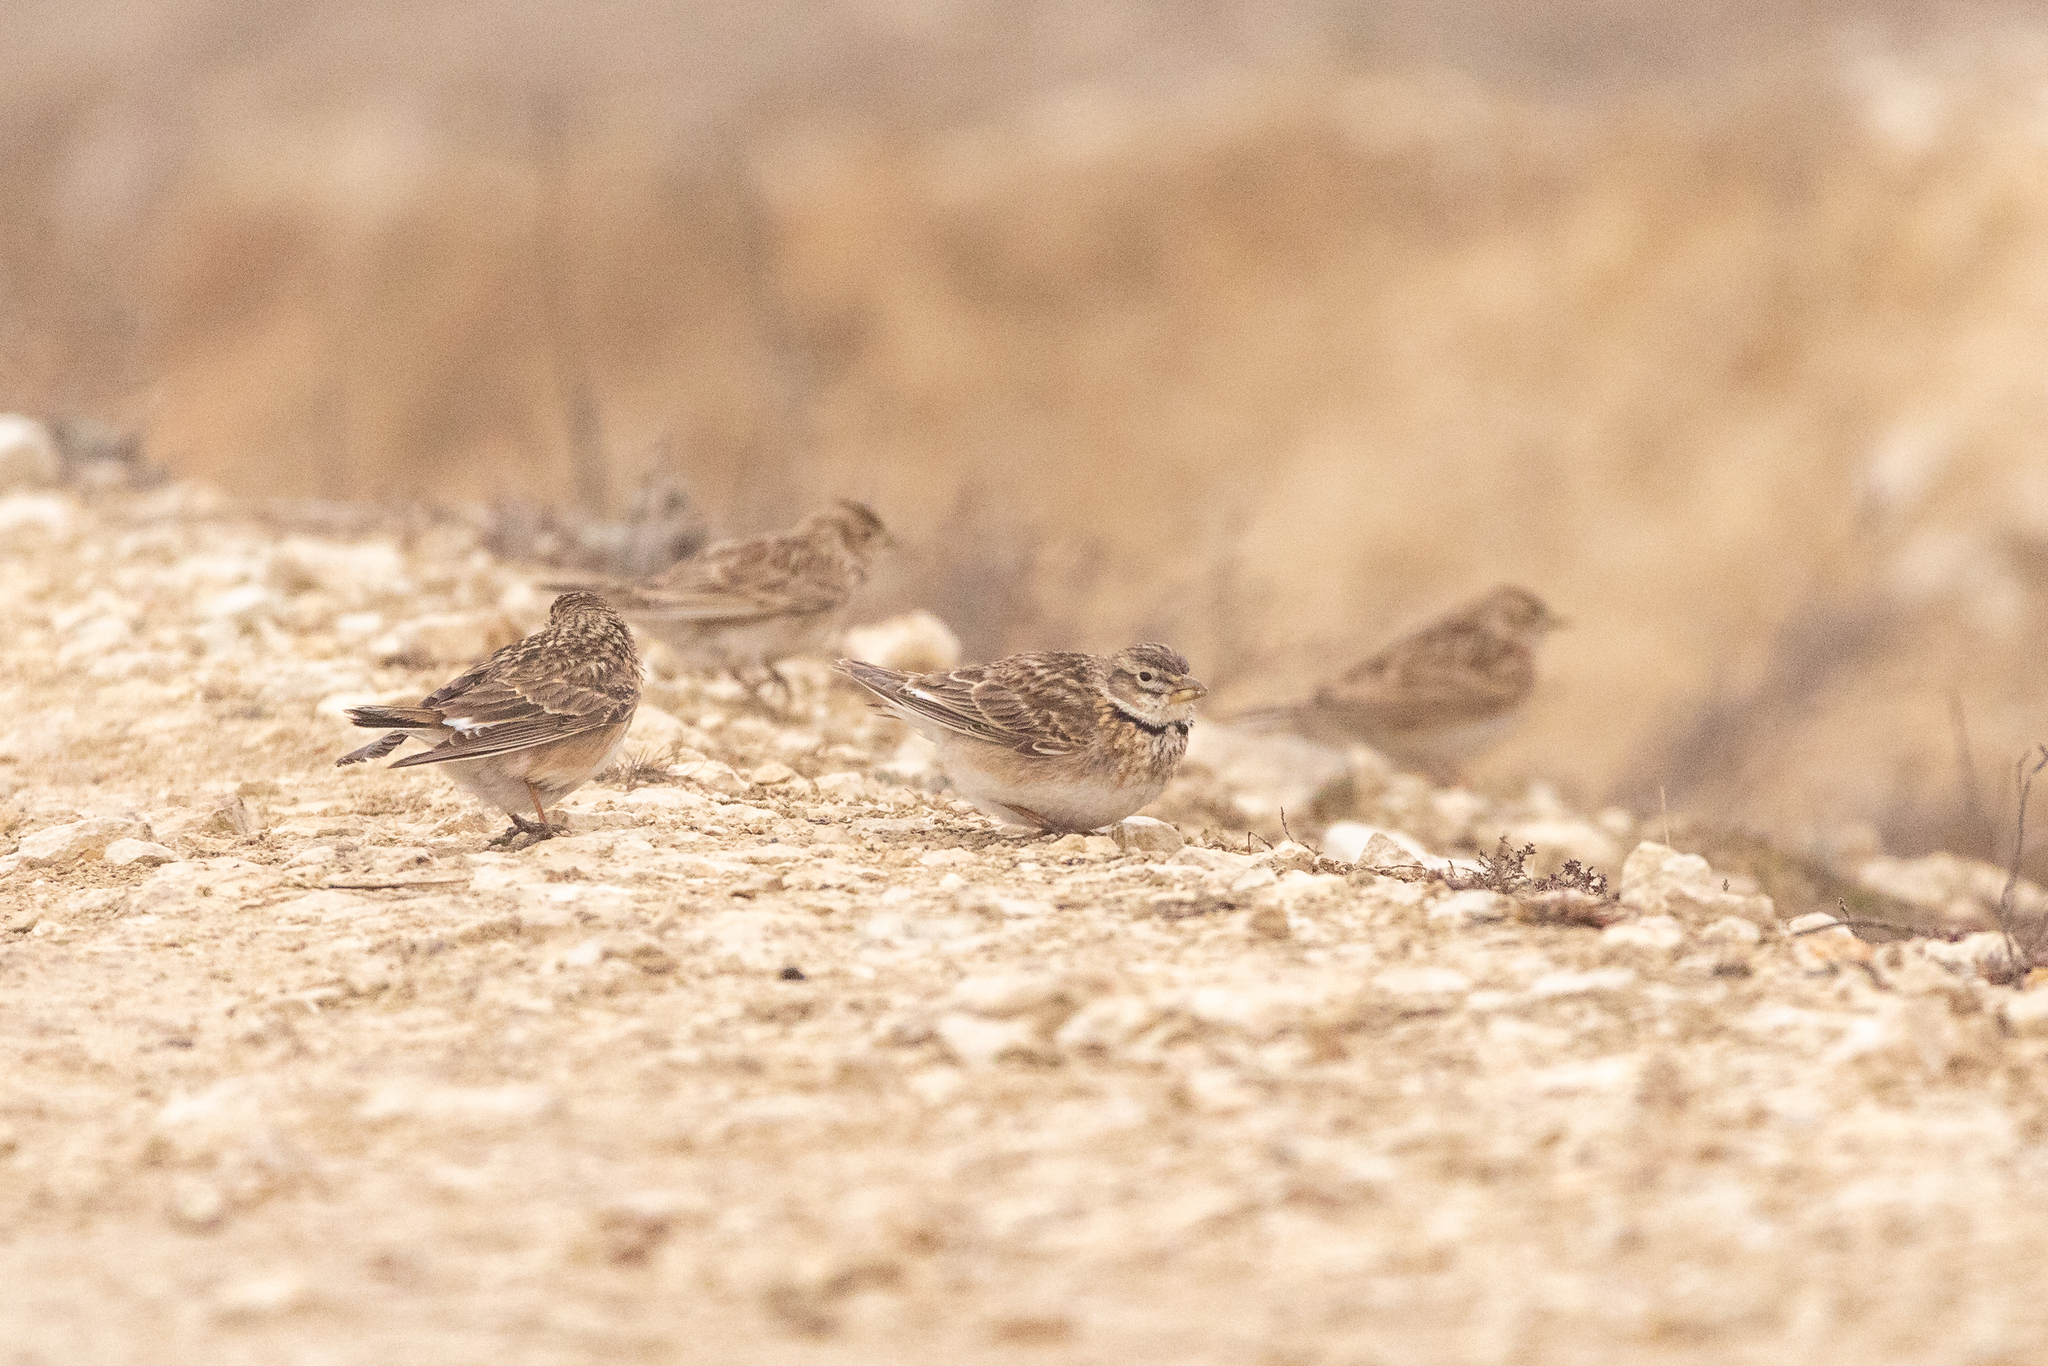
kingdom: Animalia
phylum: Chordata
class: Aves
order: Passeriformes
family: Alaudidae
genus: Melanocorypha
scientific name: Melanocorypha calandra
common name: Calandra lark
